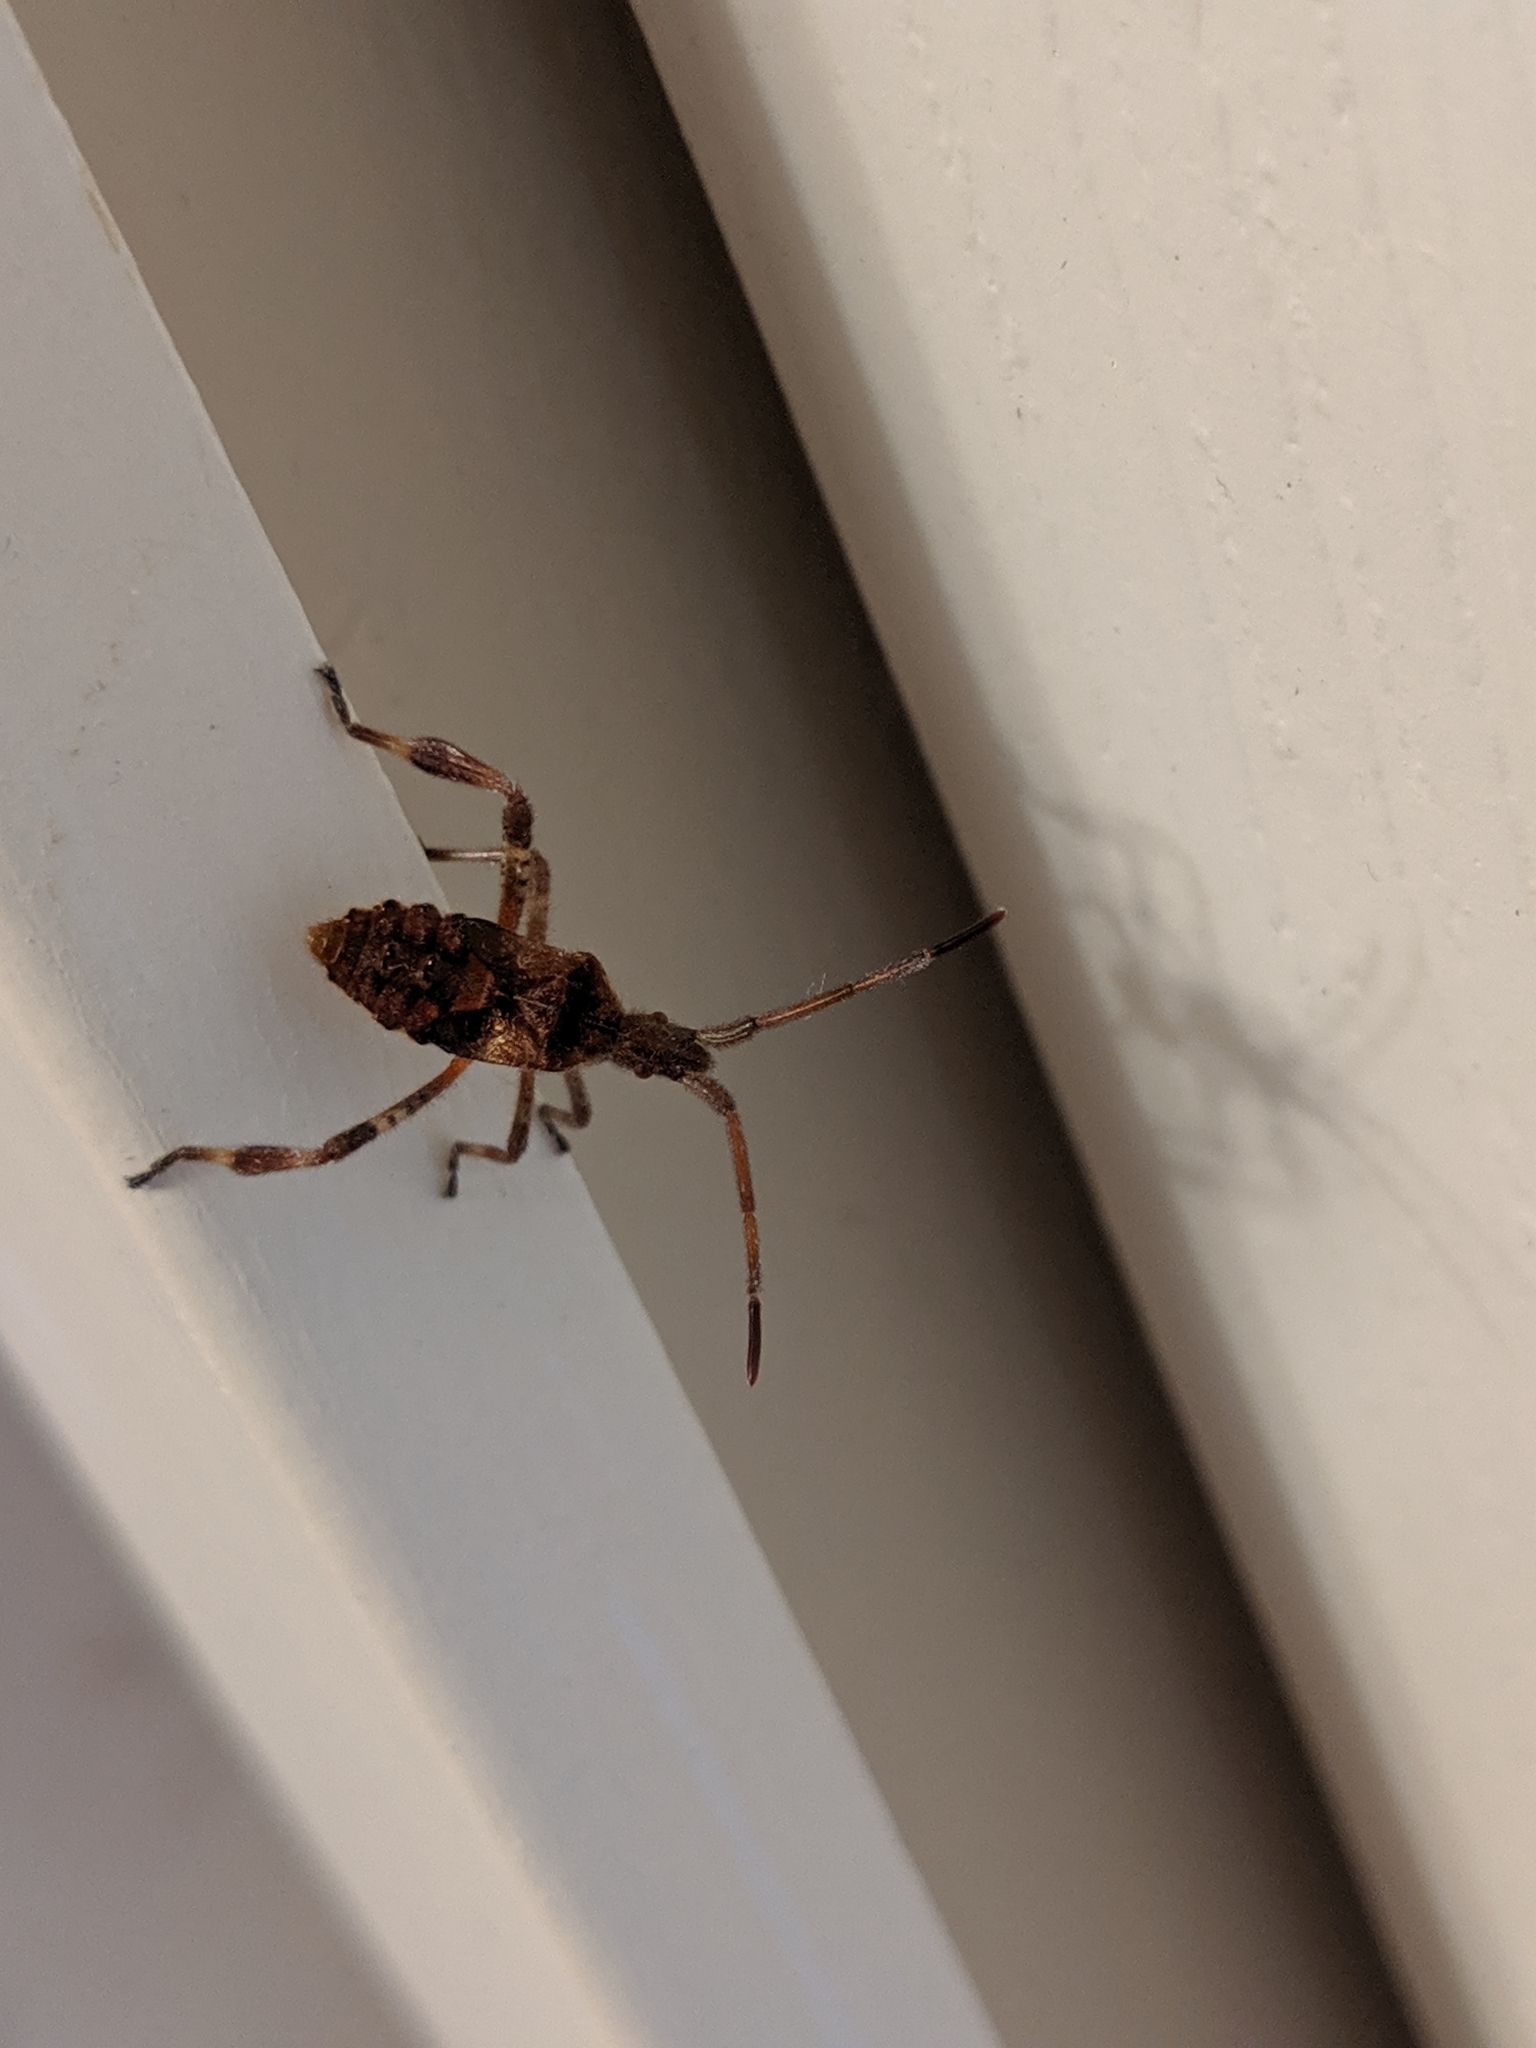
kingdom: Animalia
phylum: Arthropoda
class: Insecta
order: Hemiptera
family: Coreidae
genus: Leptoglossus
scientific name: Leptoglossus occidentalis
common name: Western conifer-seed bug
